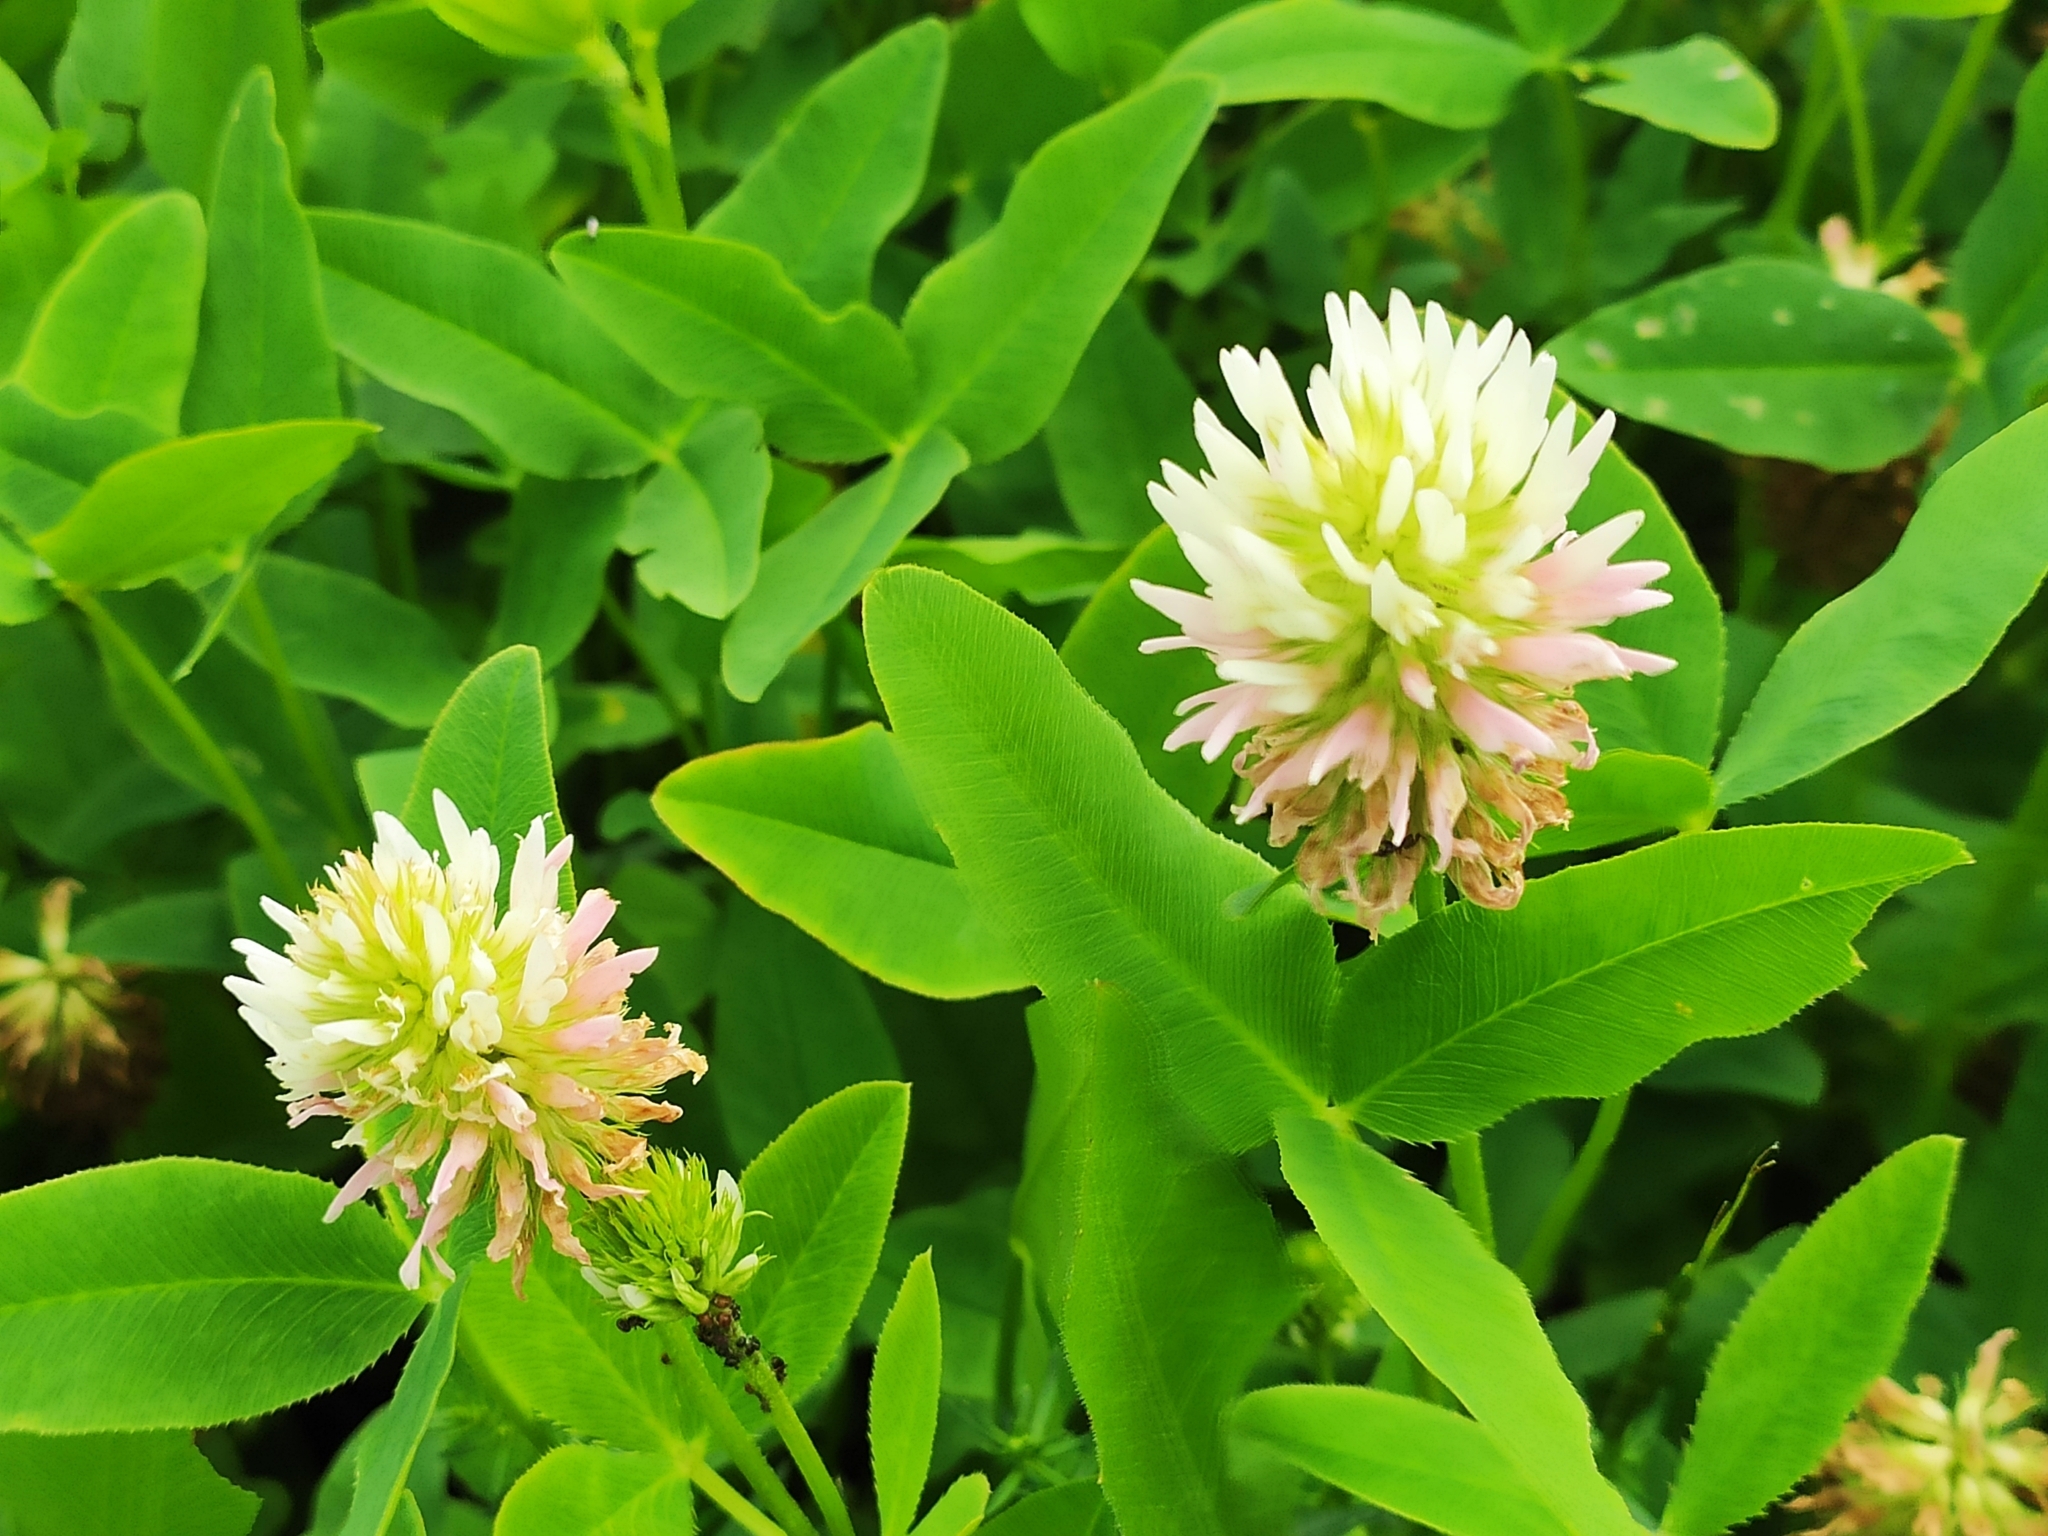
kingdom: Plantae
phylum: Tracheophyta
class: Magnoliopsida
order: Fabales
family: Fabaceae
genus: Trifolium
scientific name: Trifolium ambiguum
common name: Kura clover
